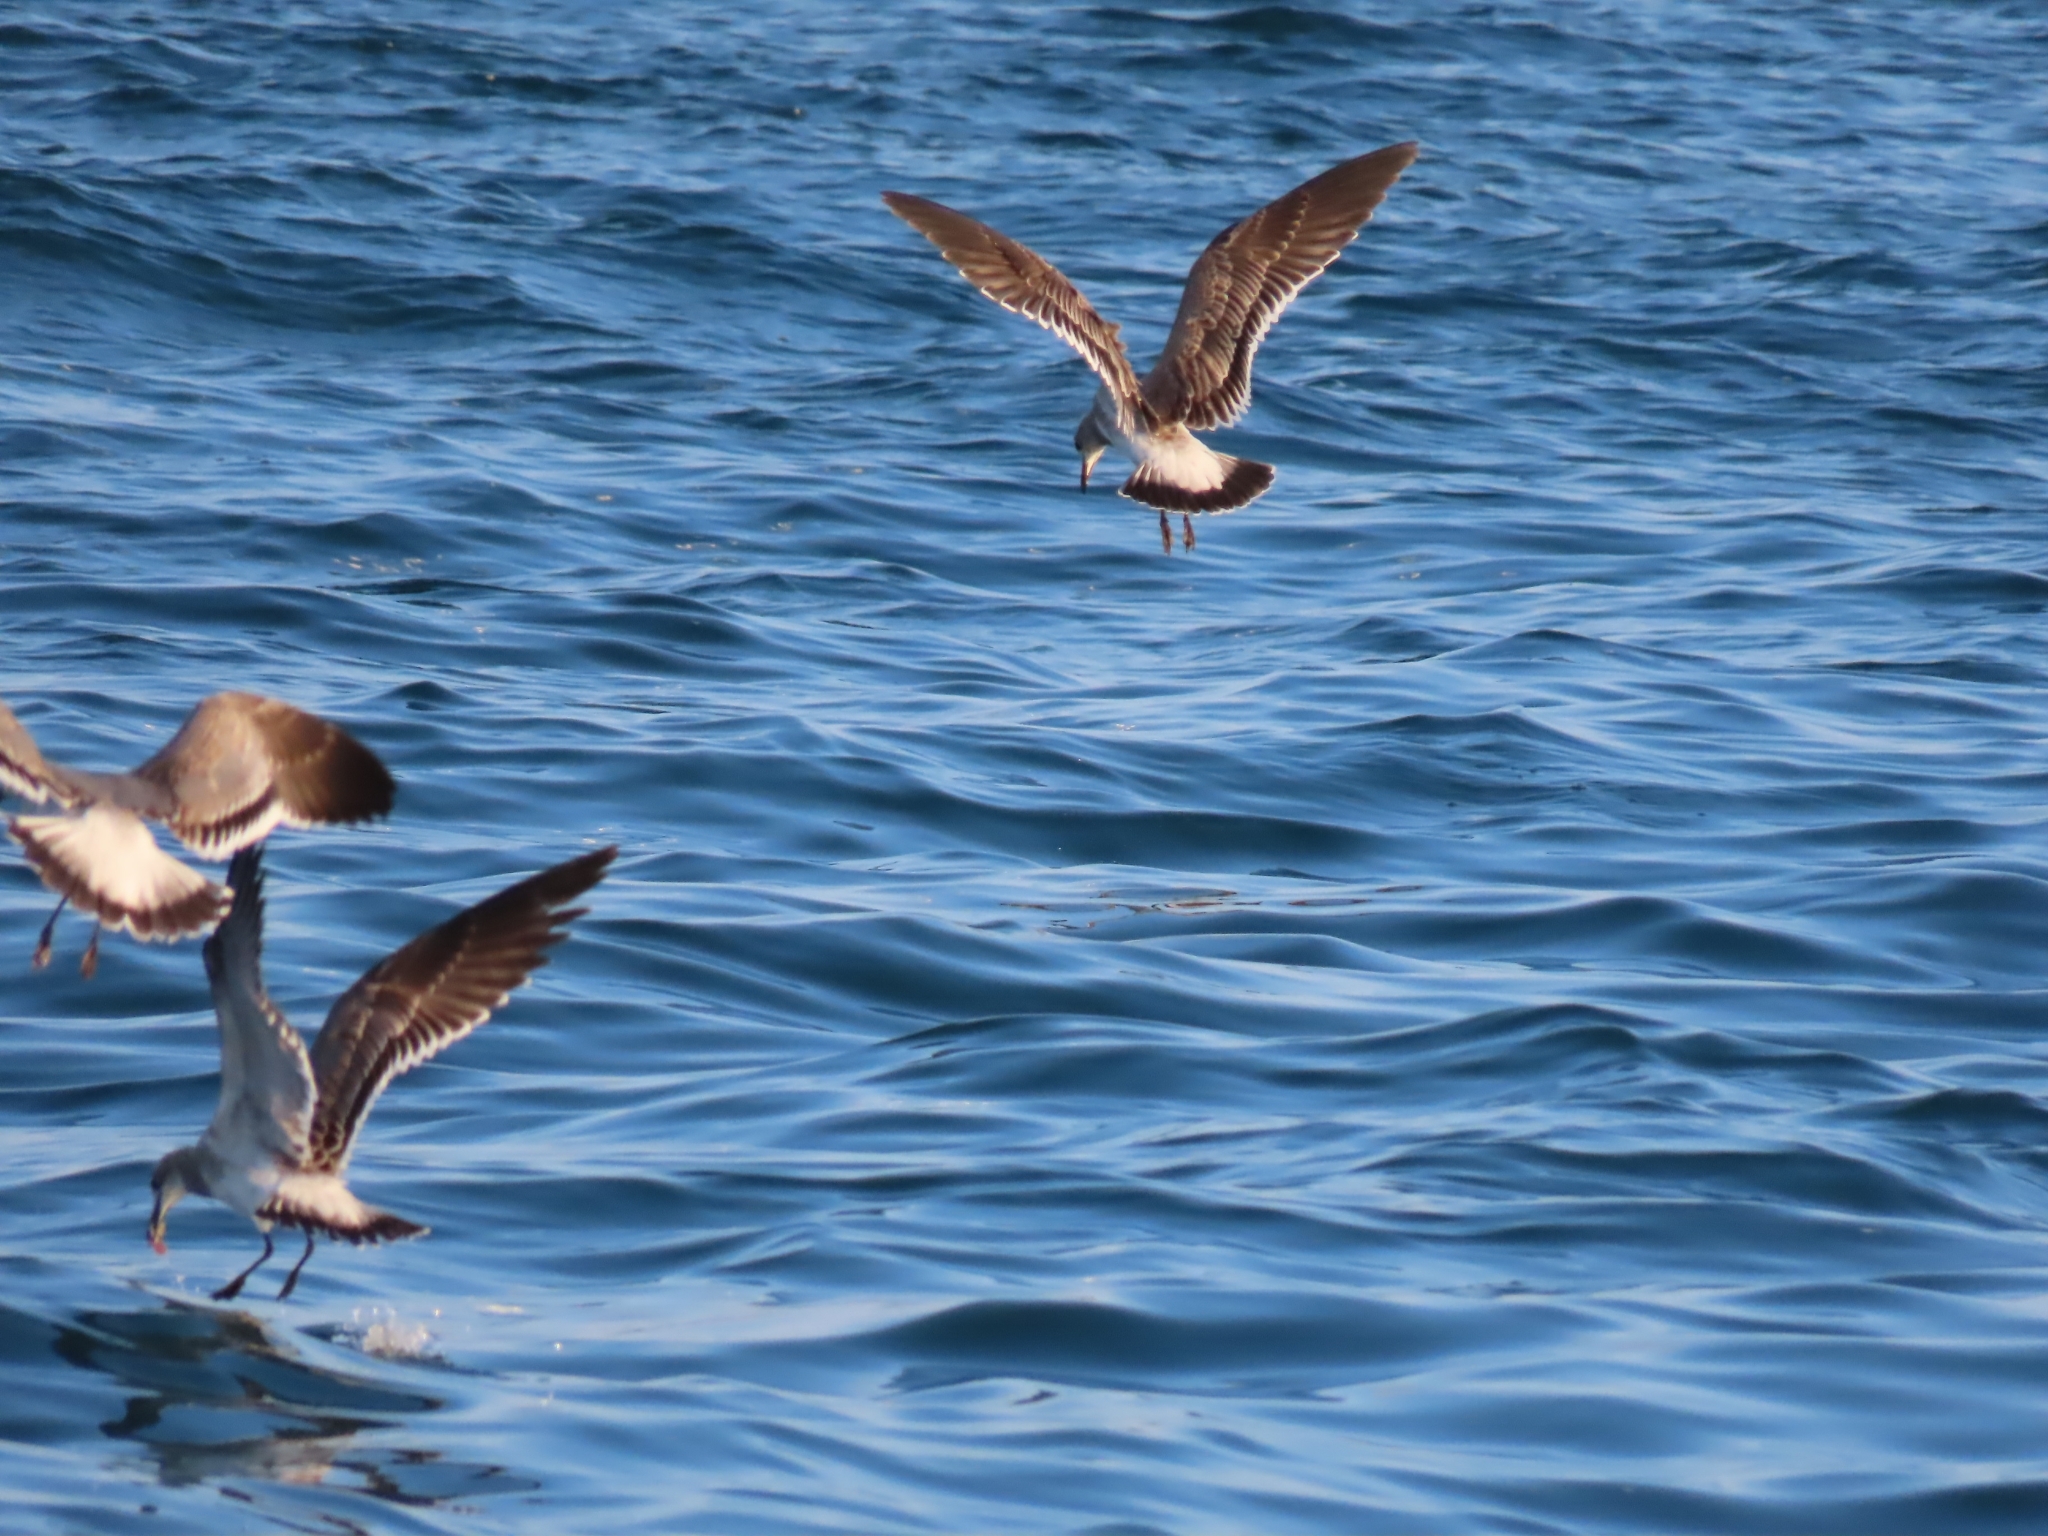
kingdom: Animalia
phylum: Chordata
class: Aves
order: Charadriiformes
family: Laridae
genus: Leucophaeus
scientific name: Leucophaeus atricilla
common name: Laughing gull
